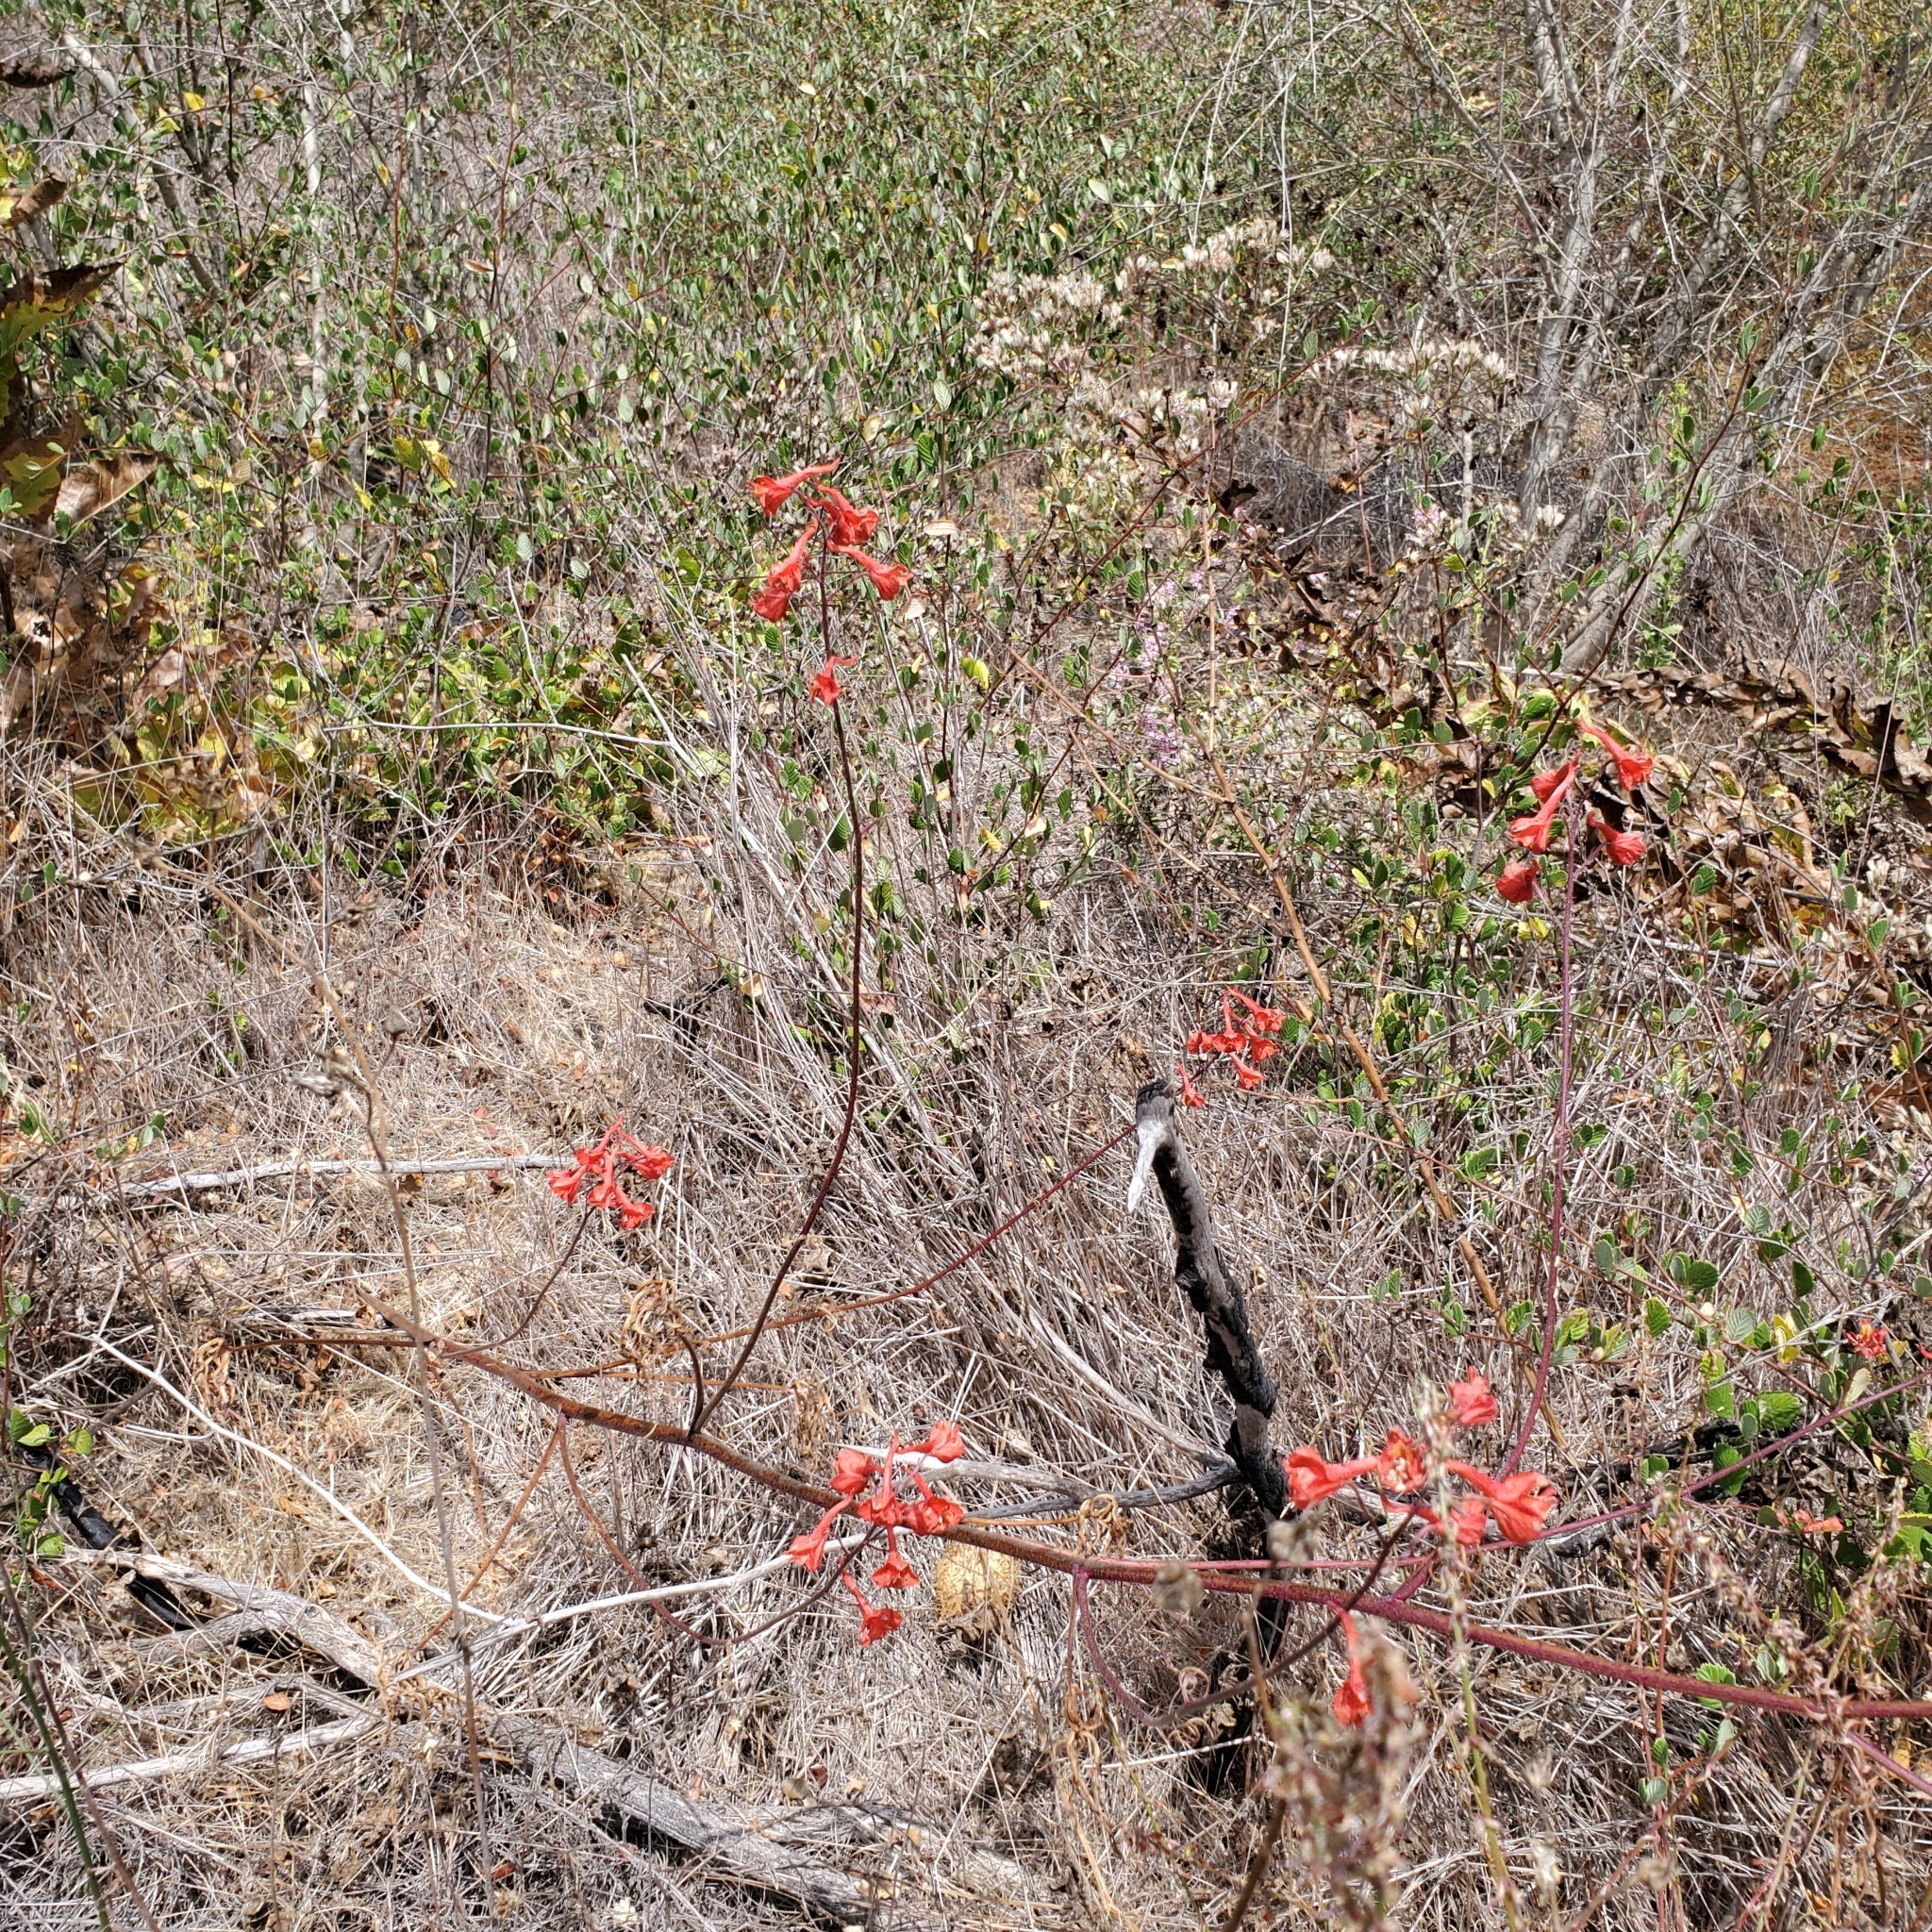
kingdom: Plantae
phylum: Tracheophyta
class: Magnoliopsida
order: Ranunculales
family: Ranunculaceae
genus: Delphinium
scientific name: Delphinium cardinale
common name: Scarlet larkspur
